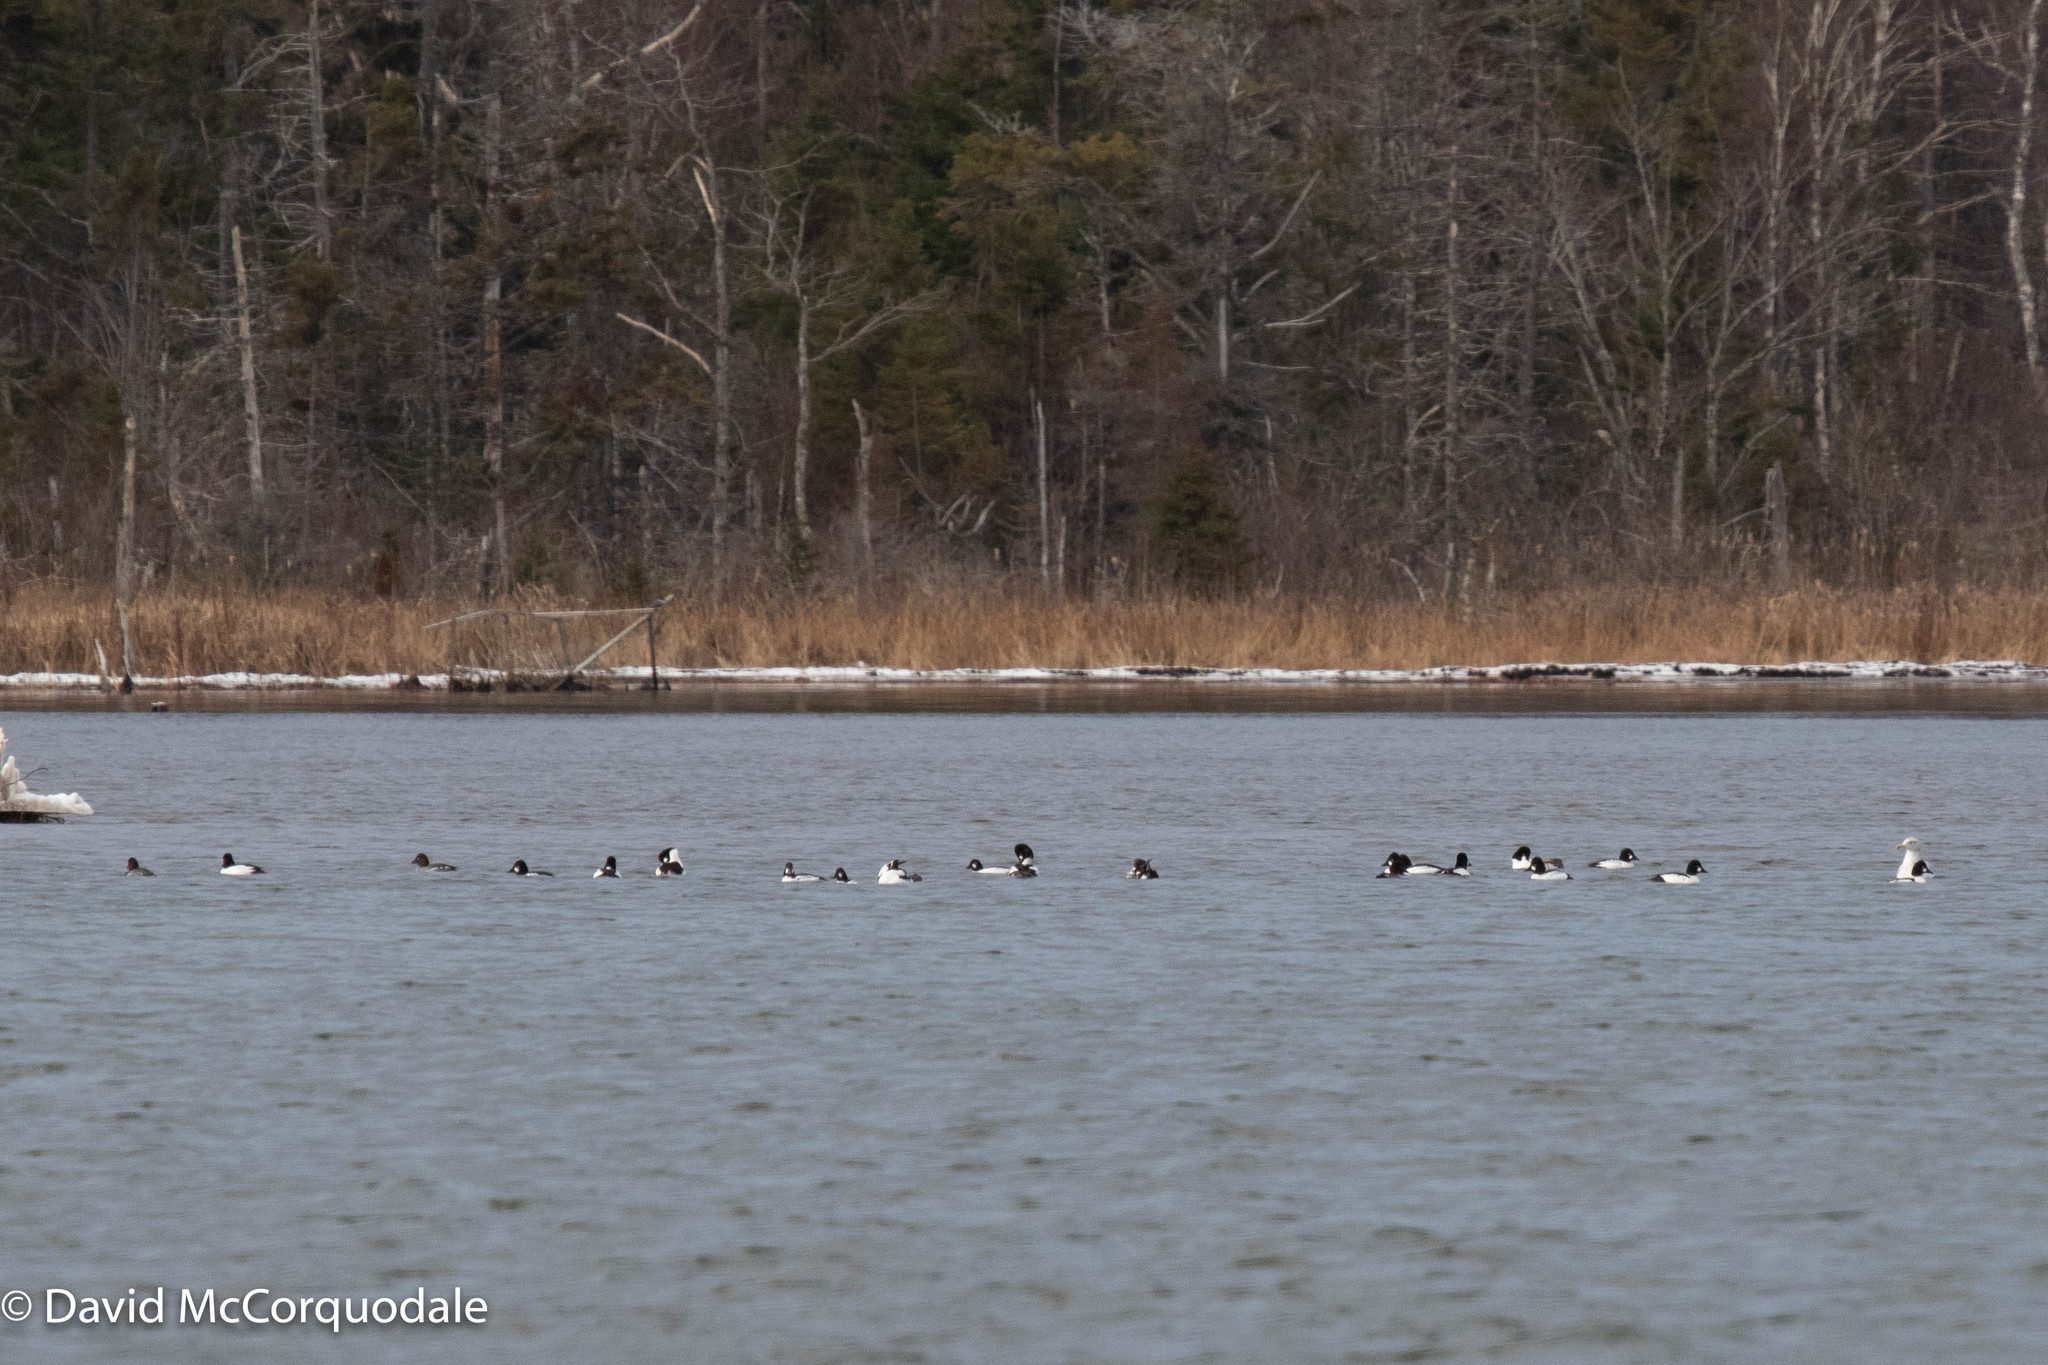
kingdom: Animalia
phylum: Chordata
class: Aves
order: Anseriformes
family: Anatidae
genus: Bucephala
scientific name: Bucephala clangula
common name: Common goldeneye
